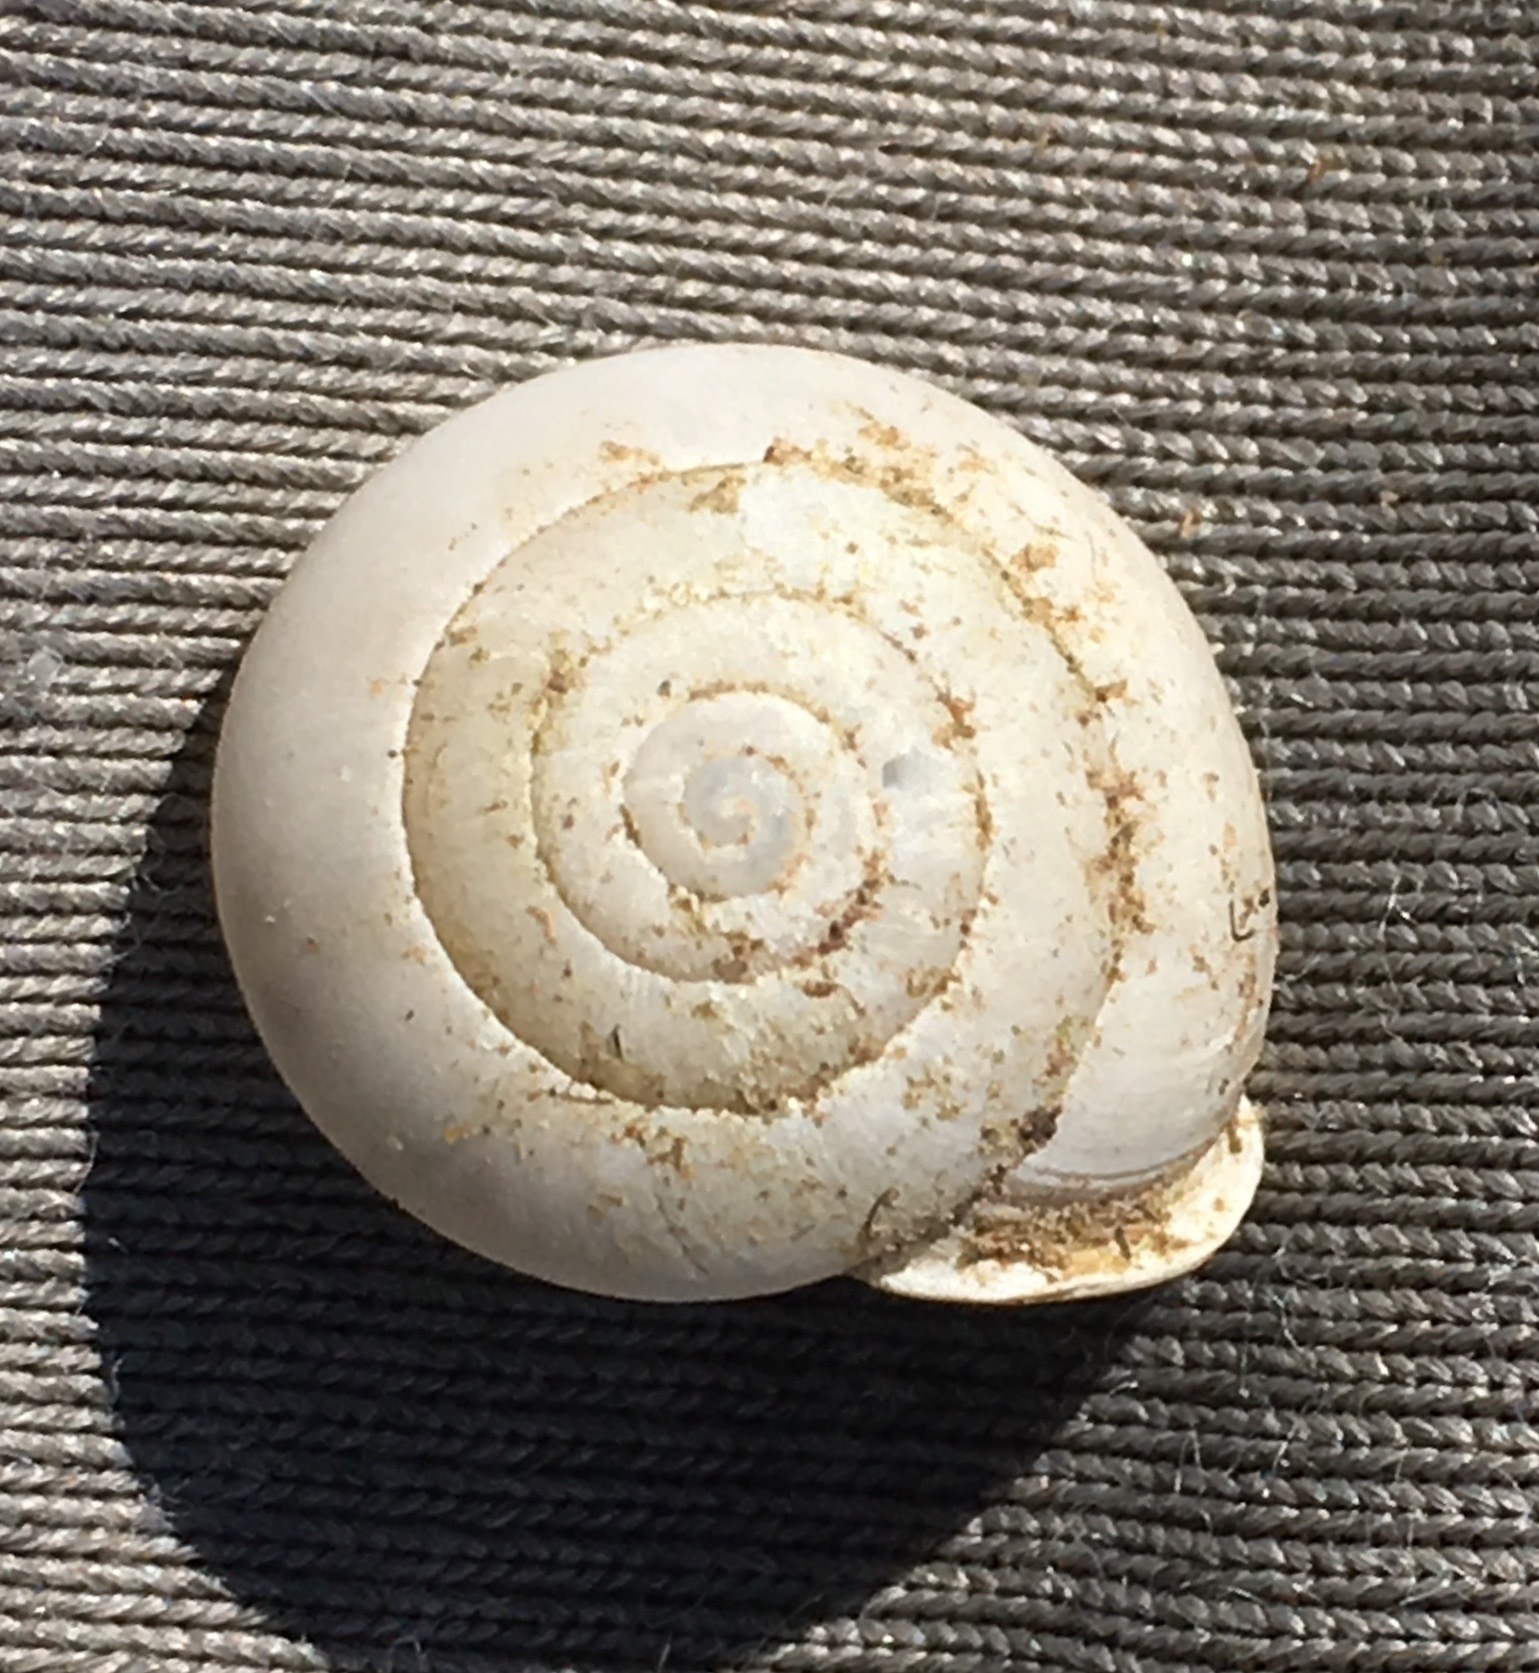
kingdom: Animalia
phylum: Mollusca
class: Gastropoda
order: Stylommatophora
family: Xanthonychidae
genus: Micrarionta
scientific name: Micrarionta facta
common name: Concentrated snail
